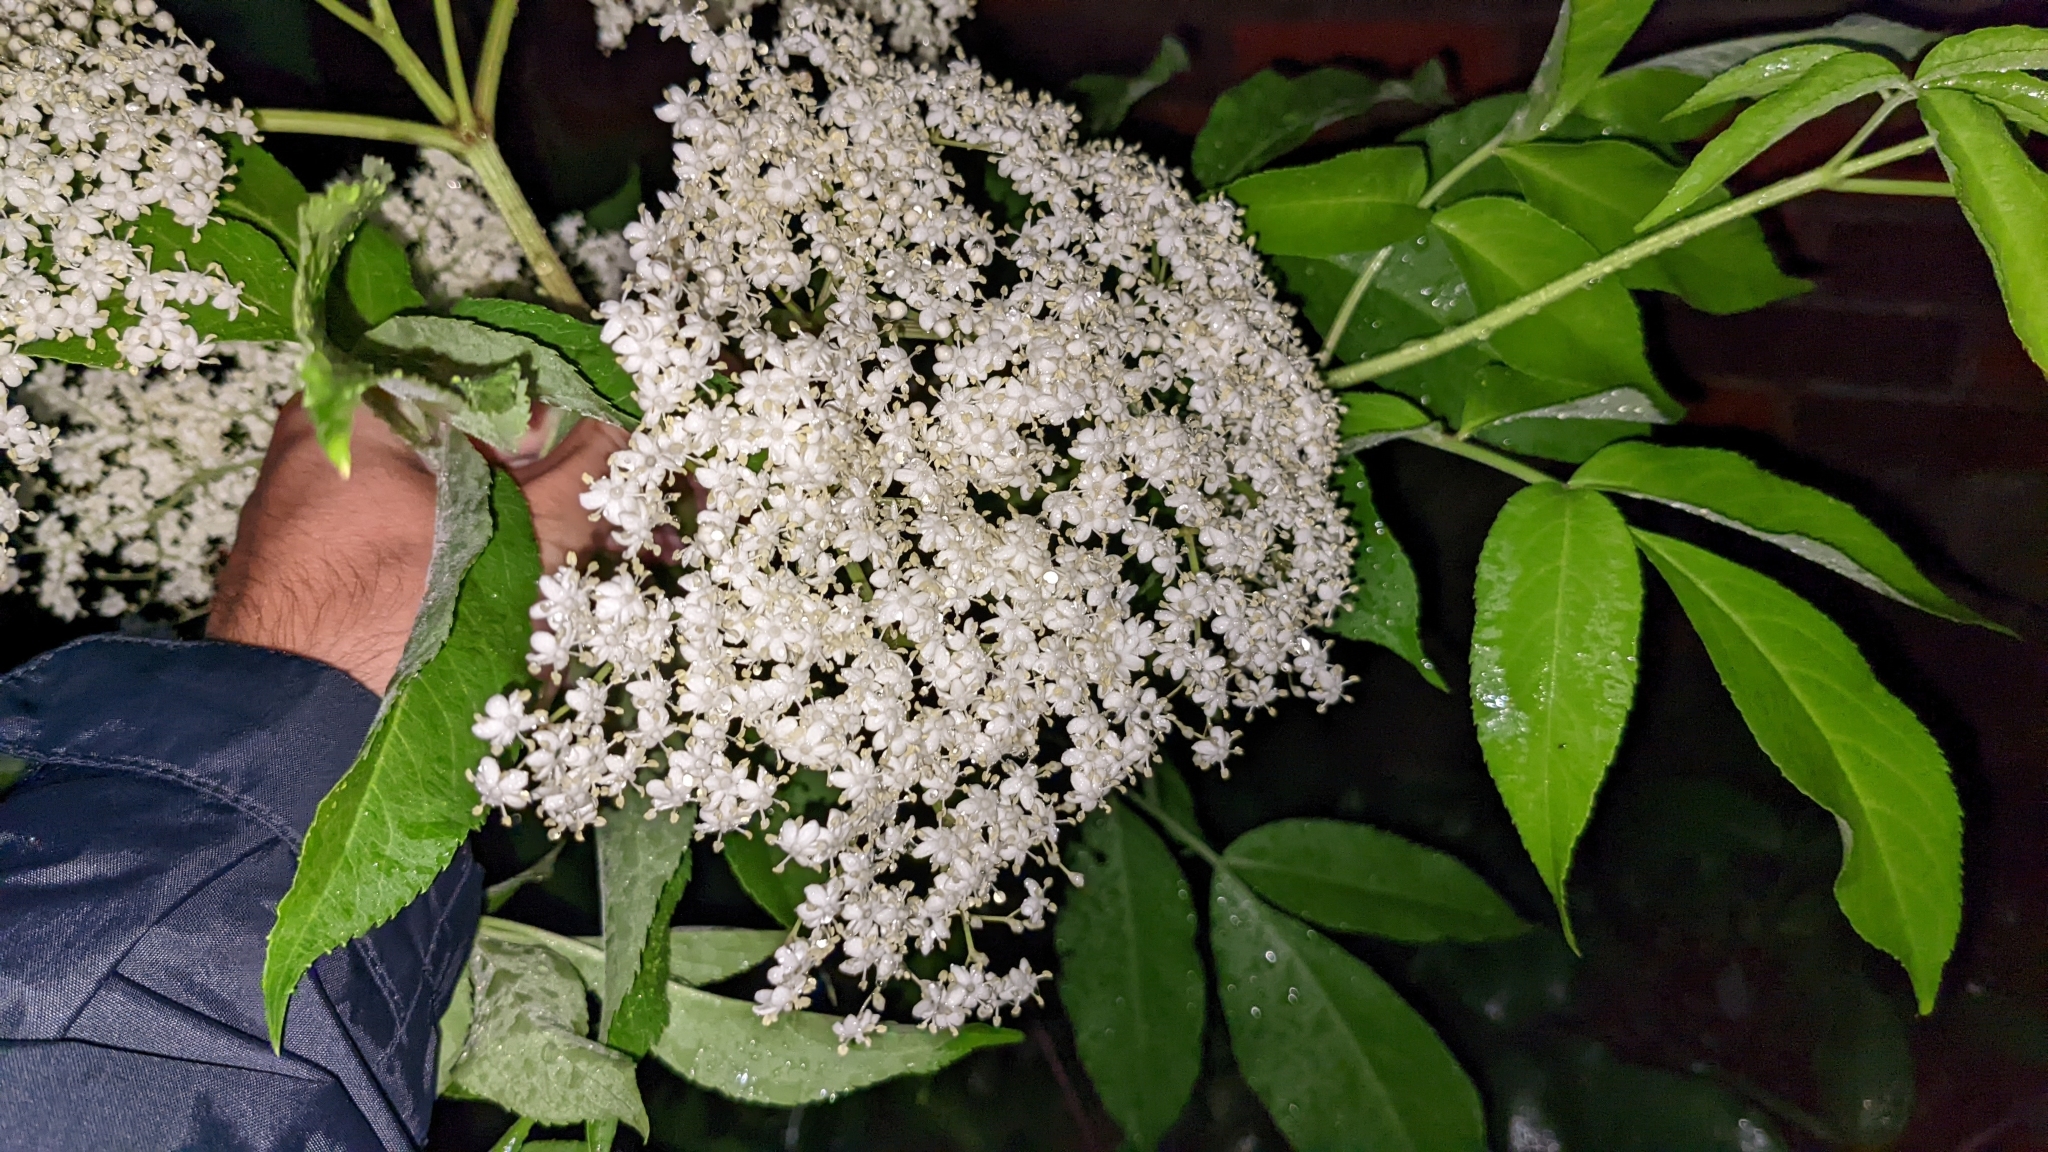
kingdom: Plantae
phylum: Tracheophyta
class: Magnoliopsida
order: Dipsacales
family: Viburnaceae
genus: Sambucus
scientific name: Sambucus canadensis
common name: American elder
